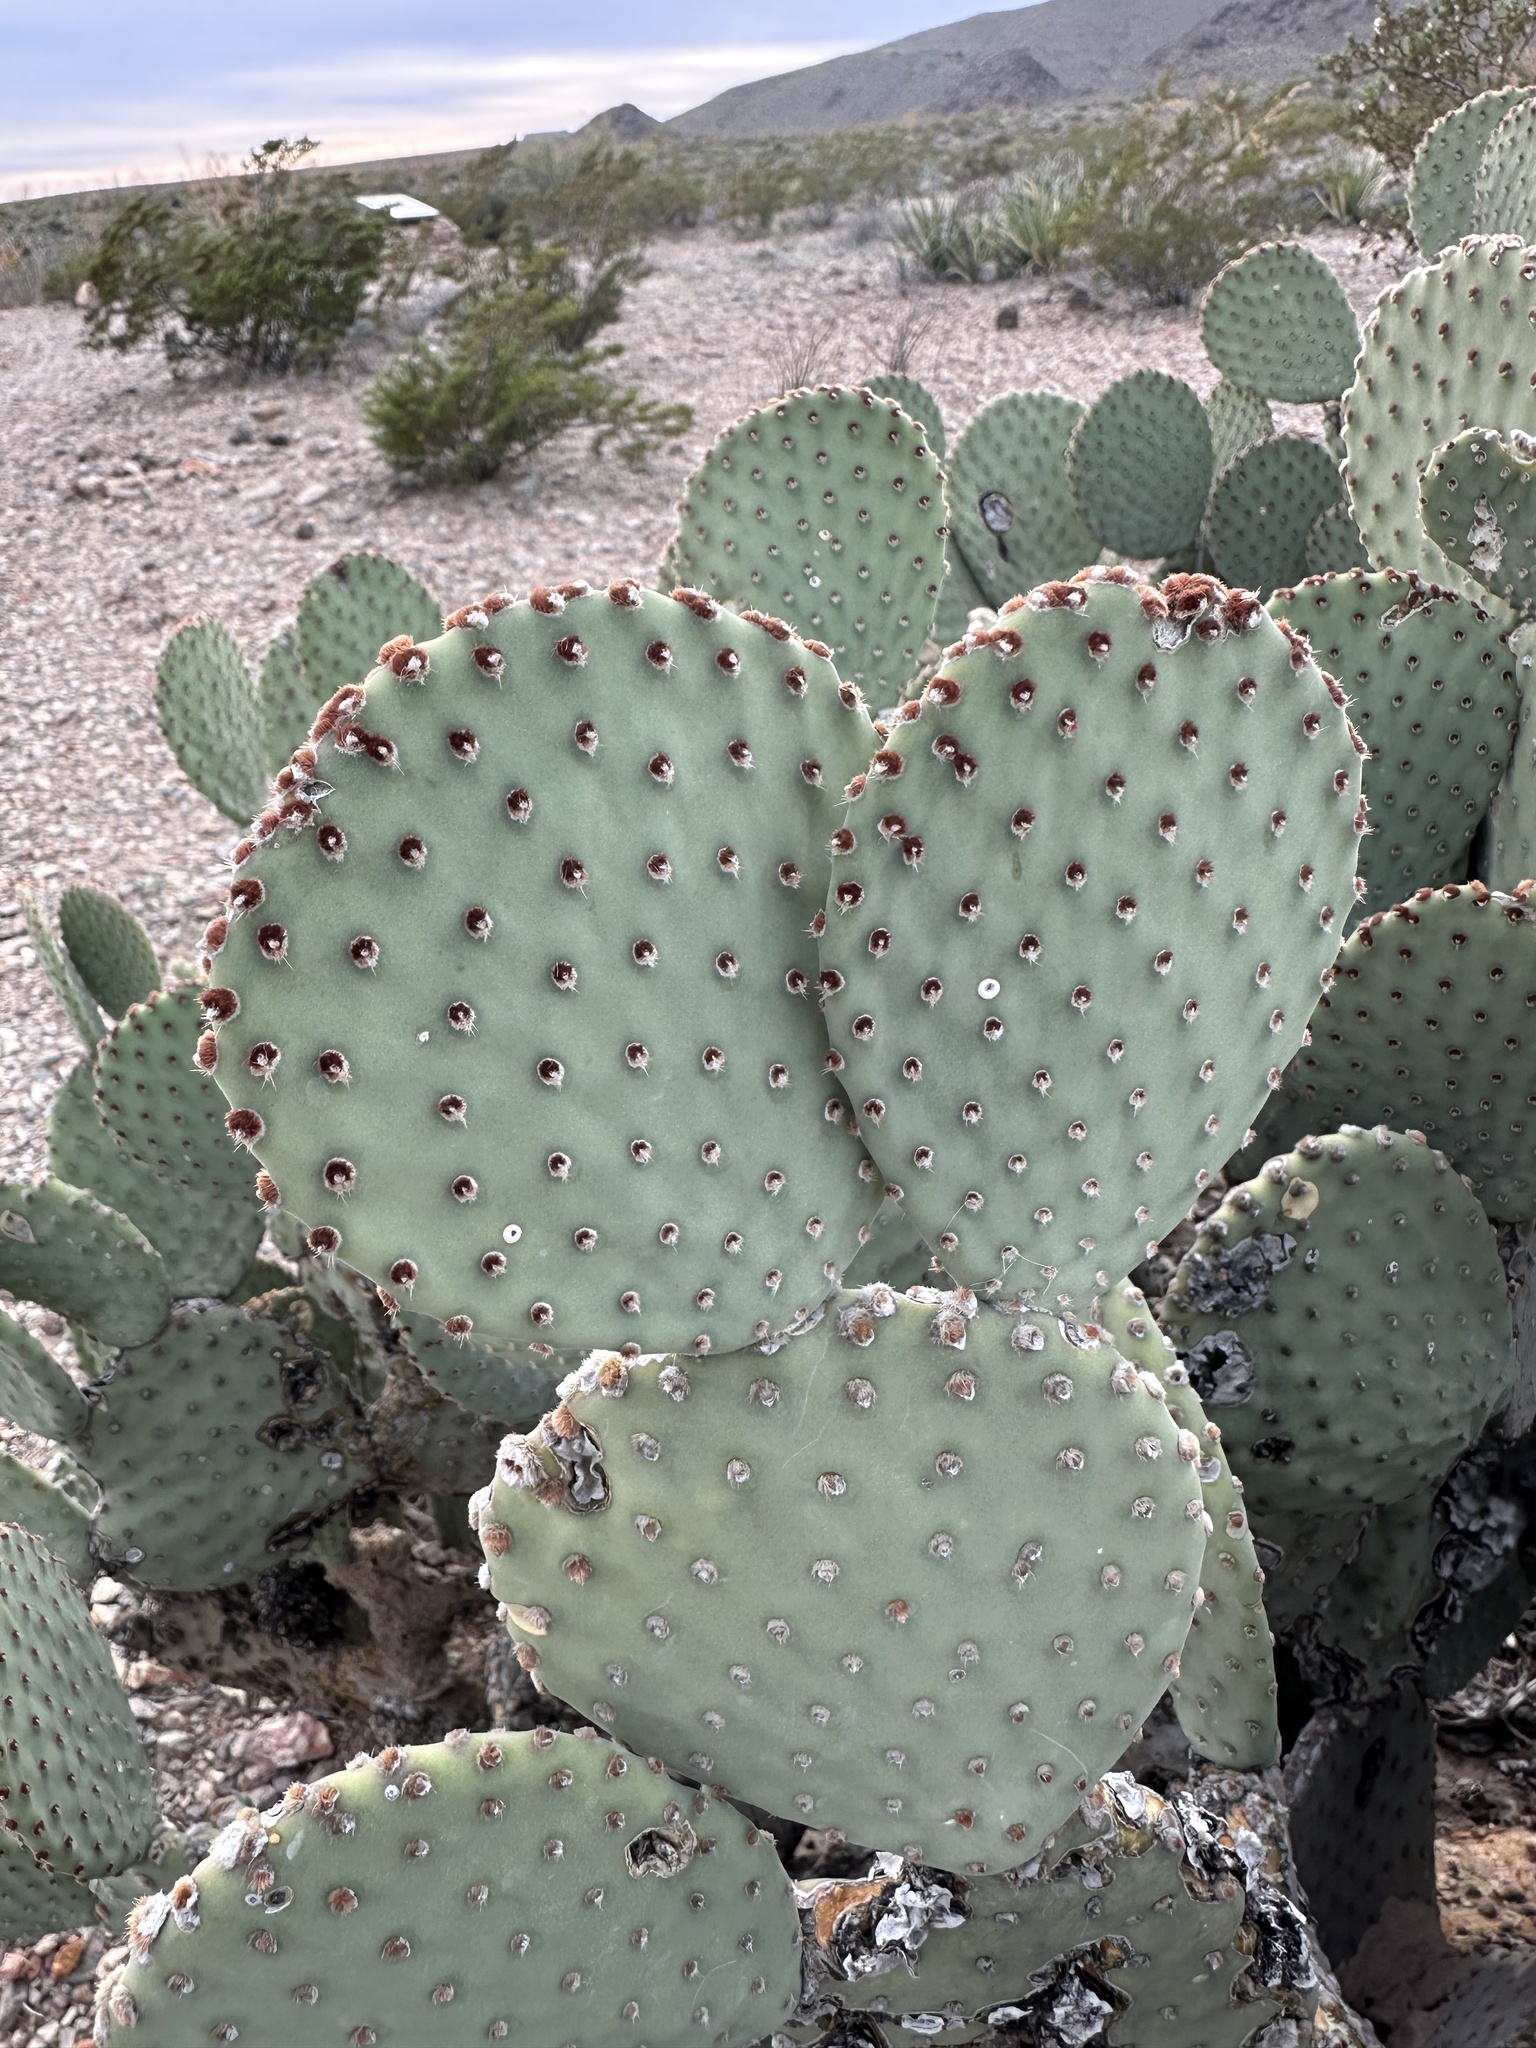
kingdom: Plantae
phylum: Tracheophyta
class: Magnoliopsida
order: Caryophyllales
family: Cactaceae
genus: Opuntia
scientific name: Opuntia rufida
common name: Blind pricklypear
